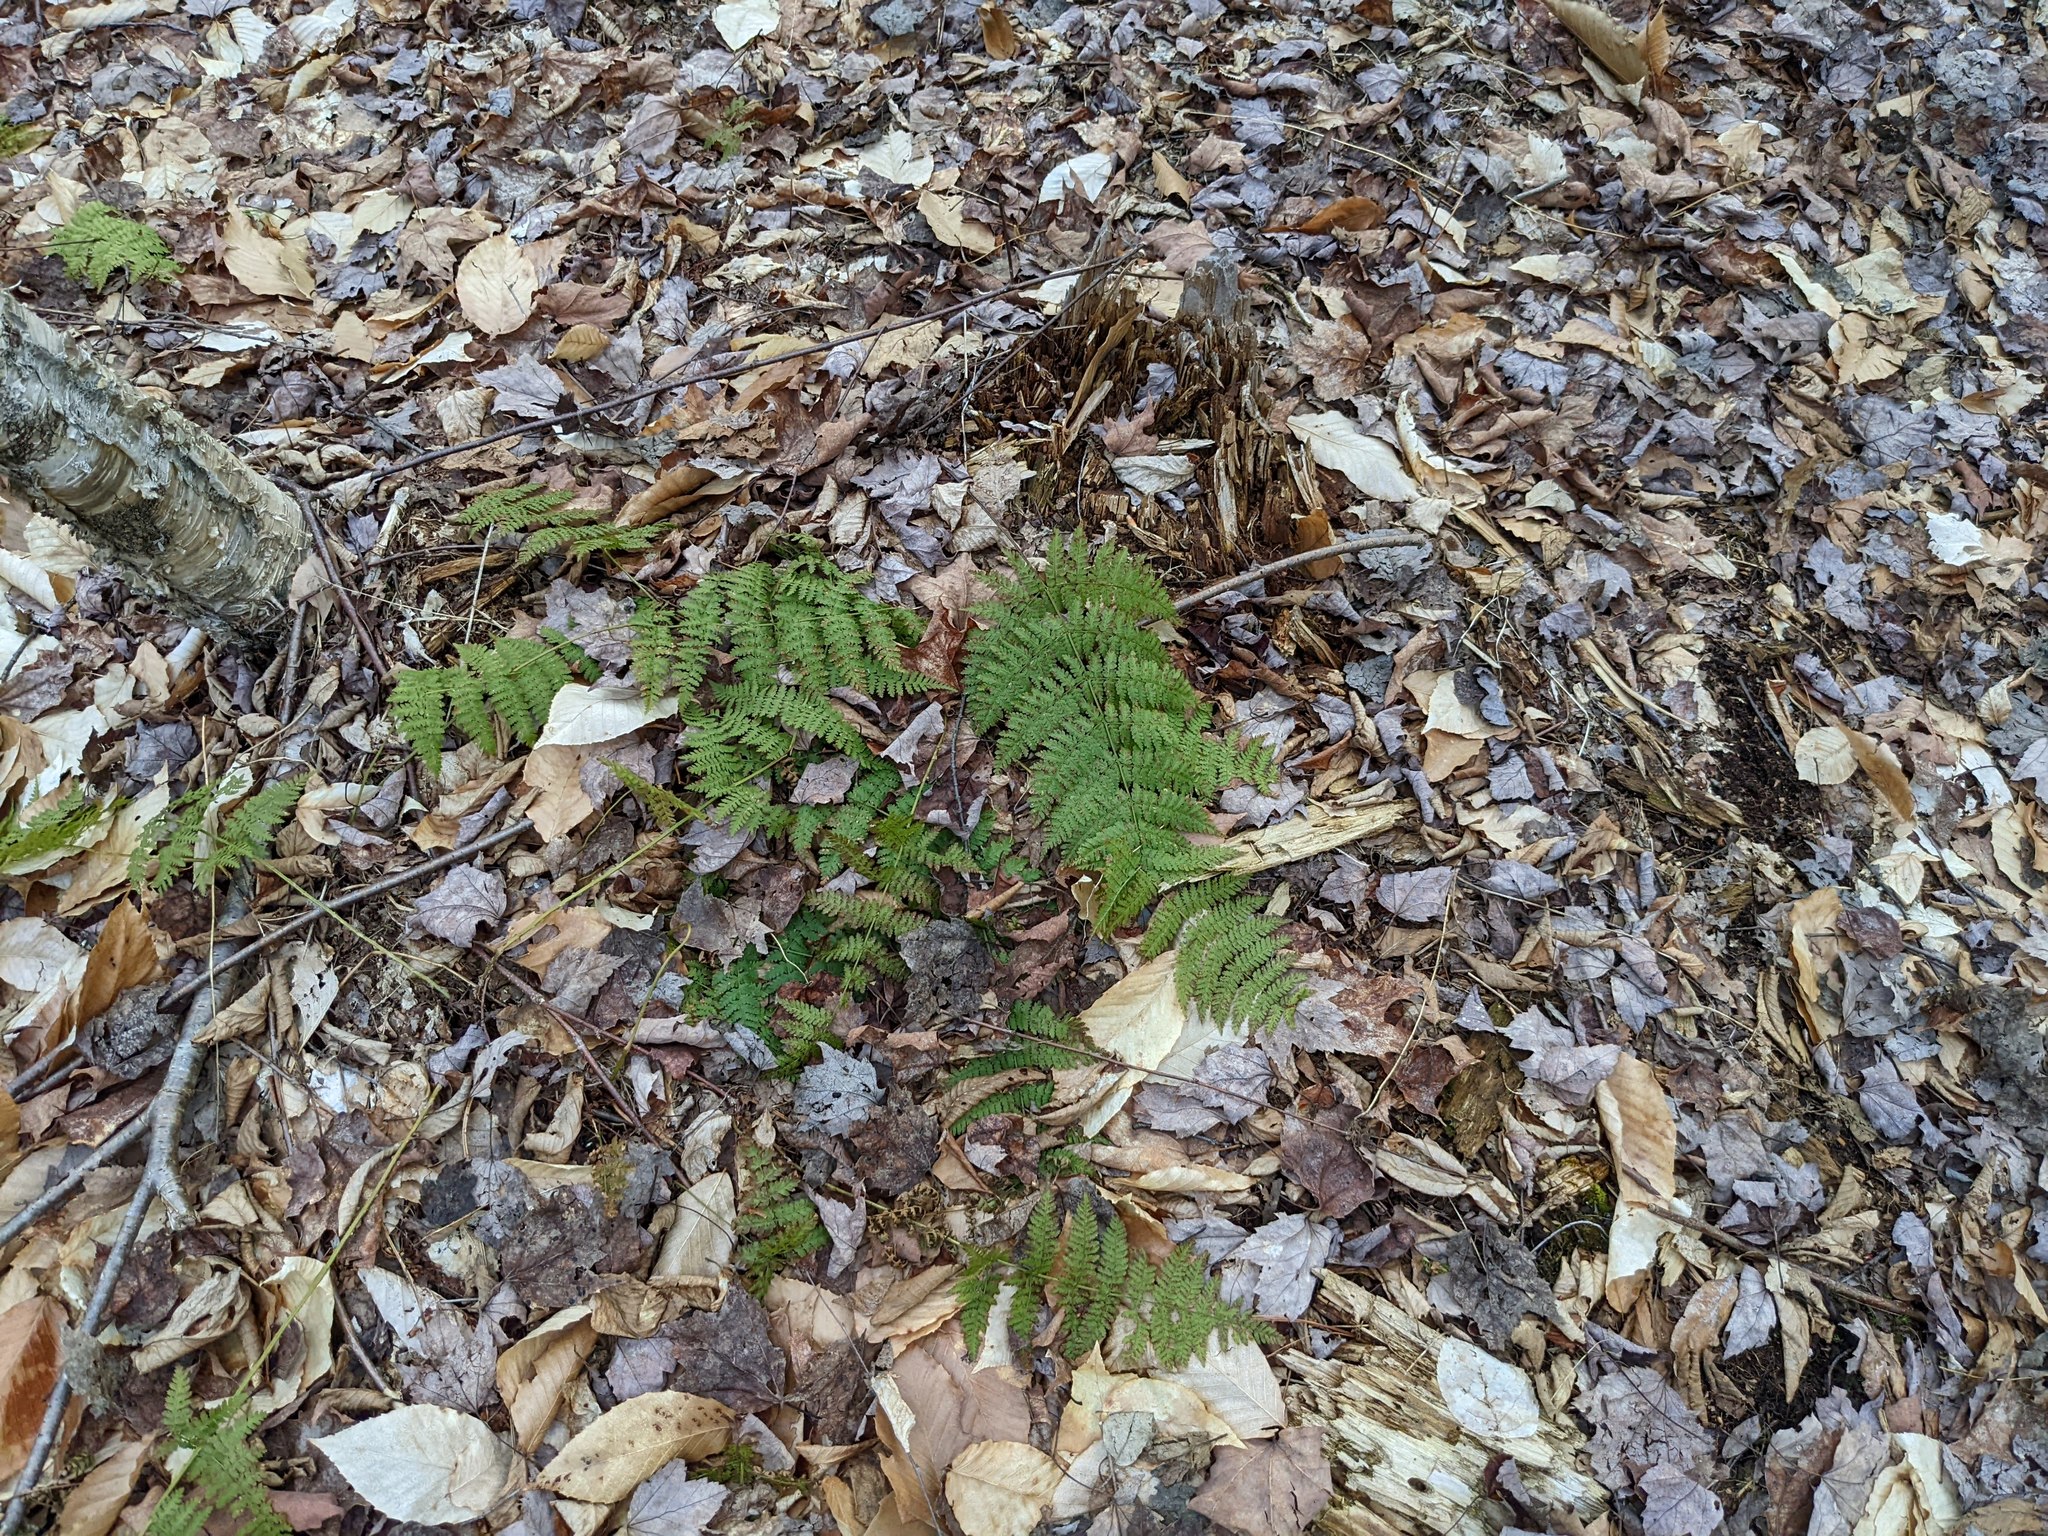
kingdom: Plantae
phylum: Tracheophyta
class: Polypodiopsida
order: Polypodiales
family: Dryopteridaceae
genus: Dryopteris
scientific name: Dryopteris intermedia
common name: Evergreen wood fern
